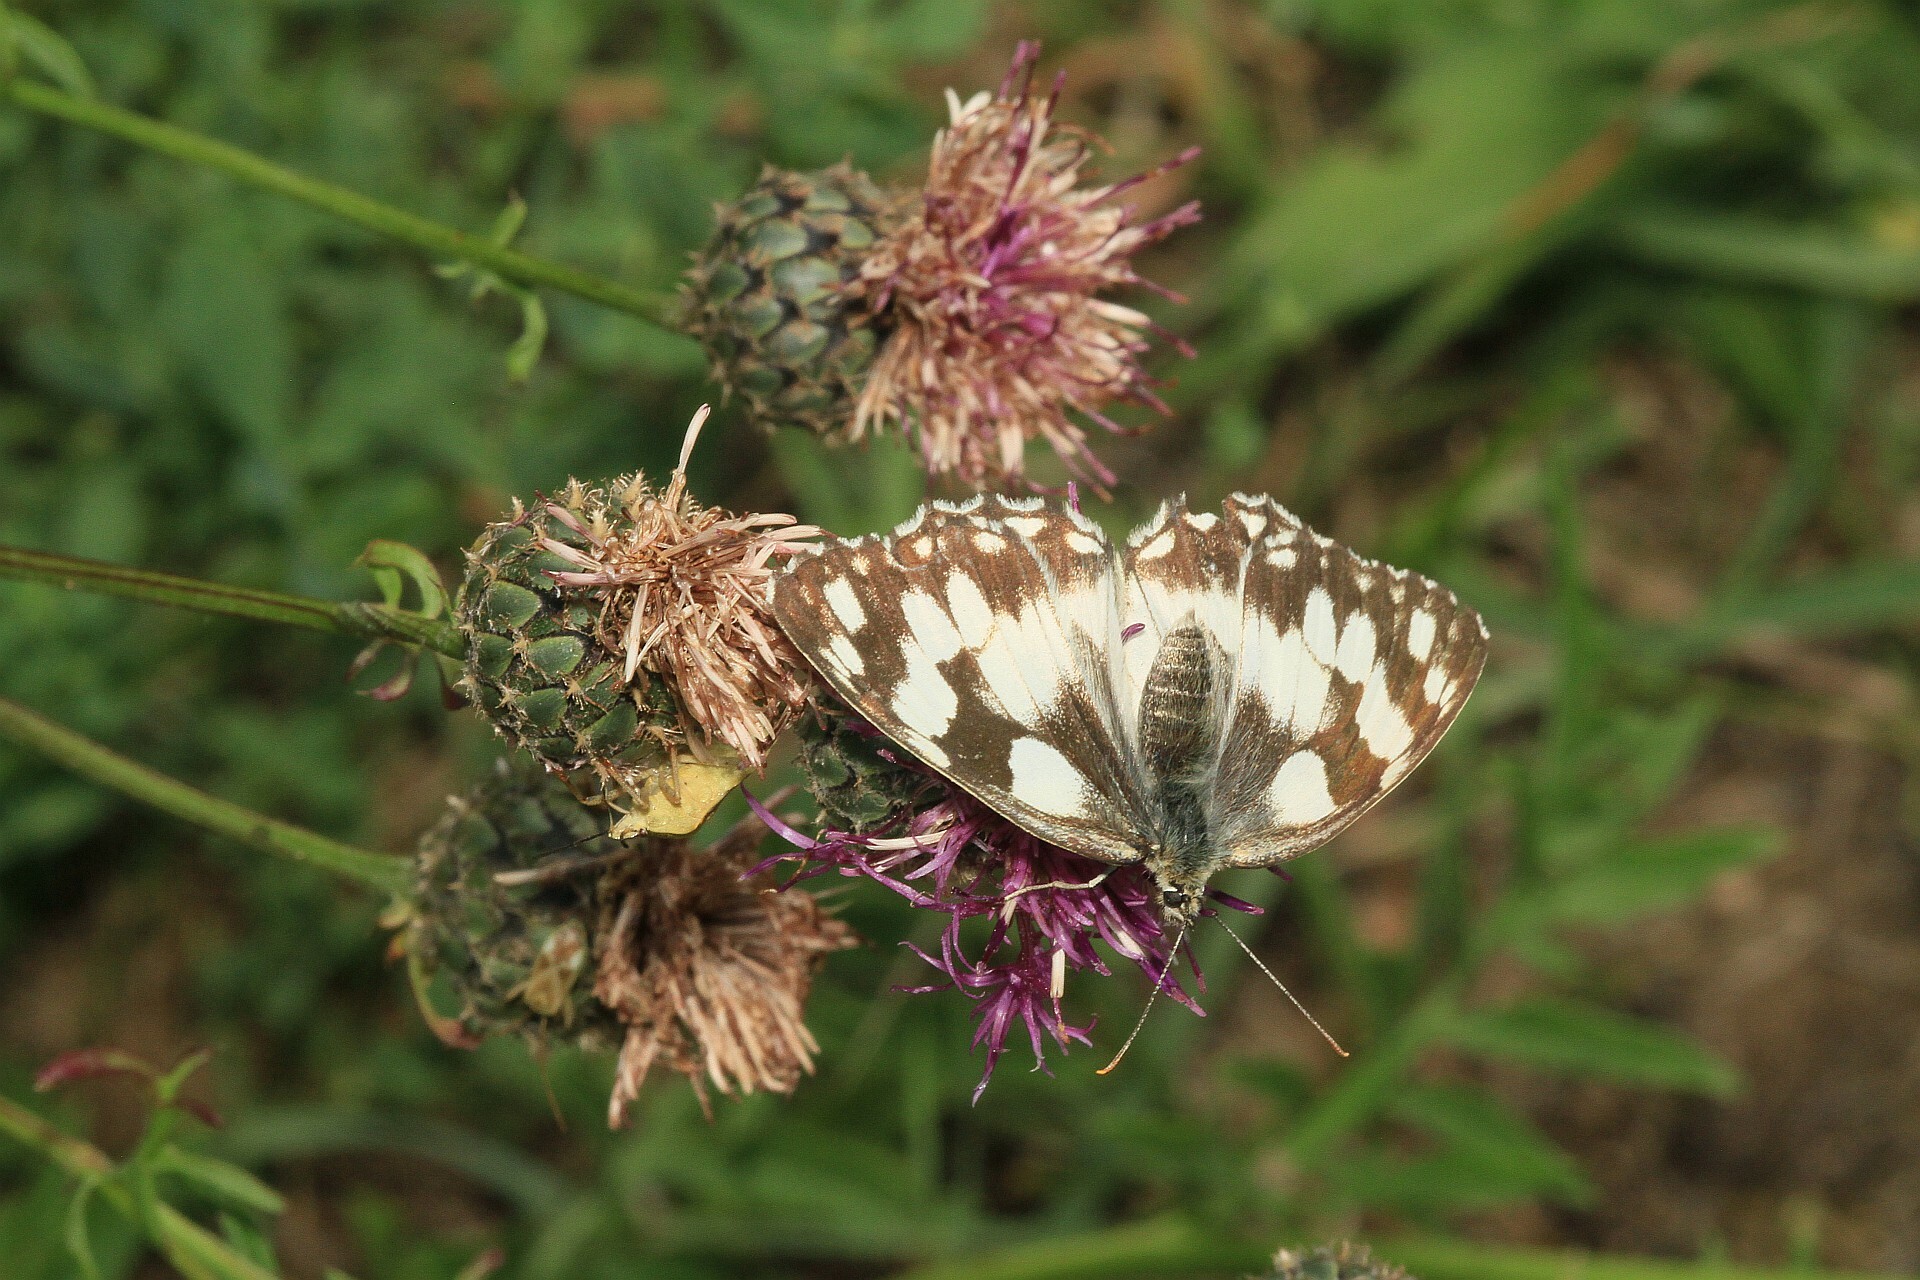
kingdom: Animalia
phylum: Arthropoda
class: Insecta
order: Lepidoptera
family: Nymphalidae
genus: Melanargia
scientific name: Melanargia galathea
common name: Marbled white
